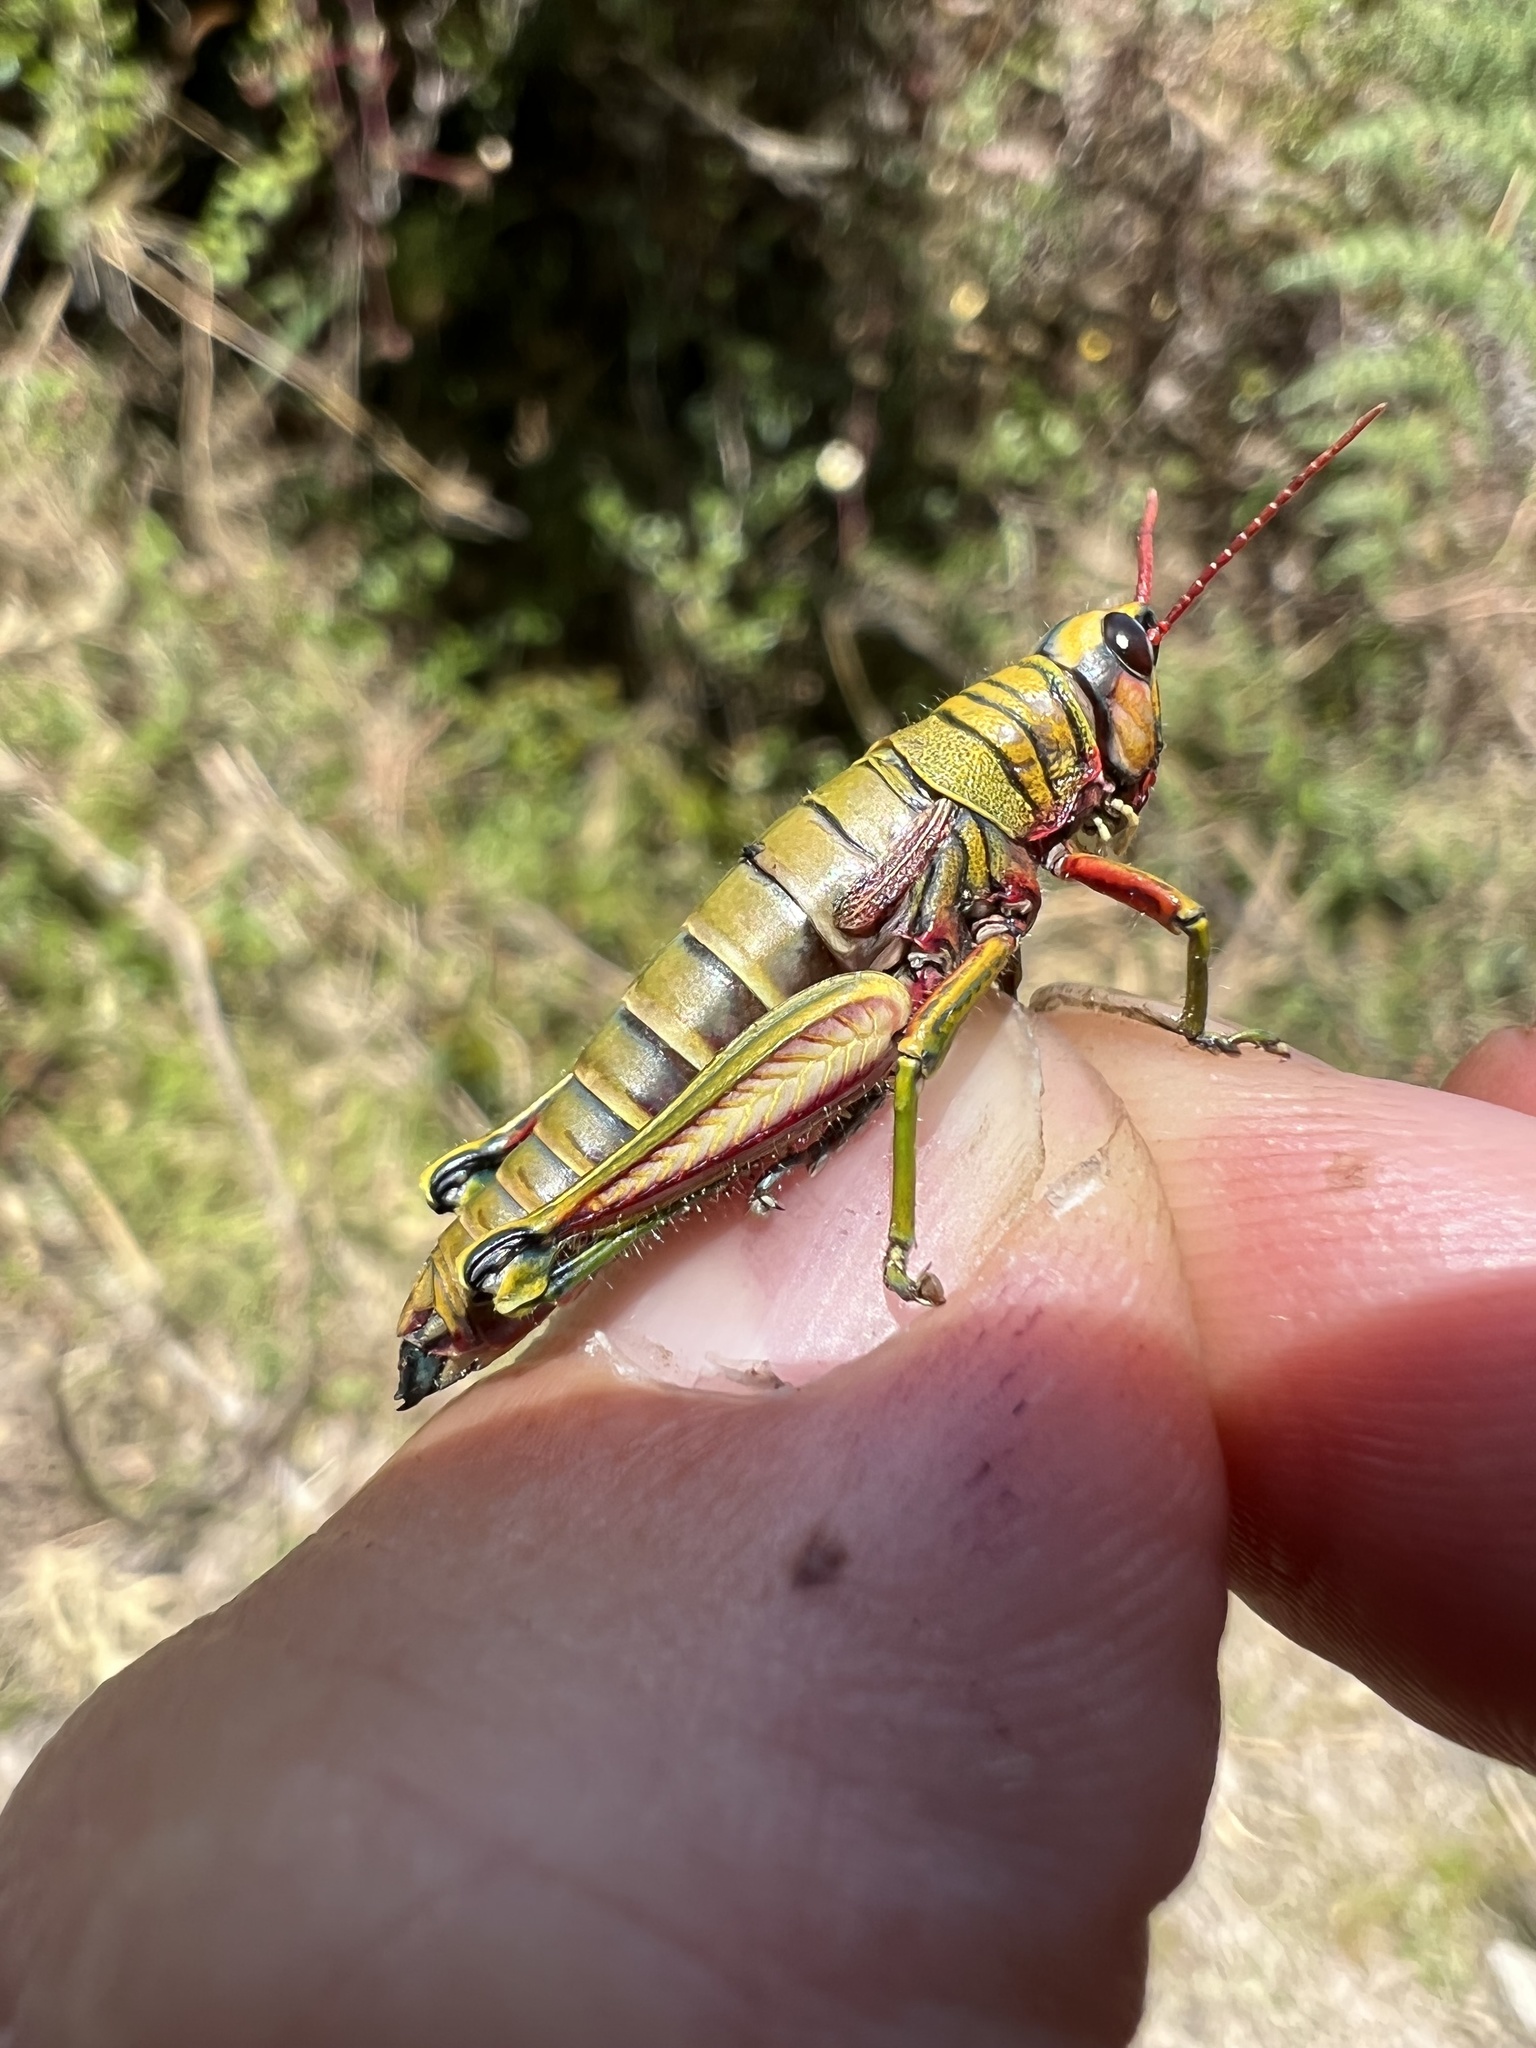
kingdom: Animalia
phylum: Arthropoda
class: Insecta
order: Orthoptera
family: Acrididae
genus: Agesander
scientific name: Agesander ruficornis
